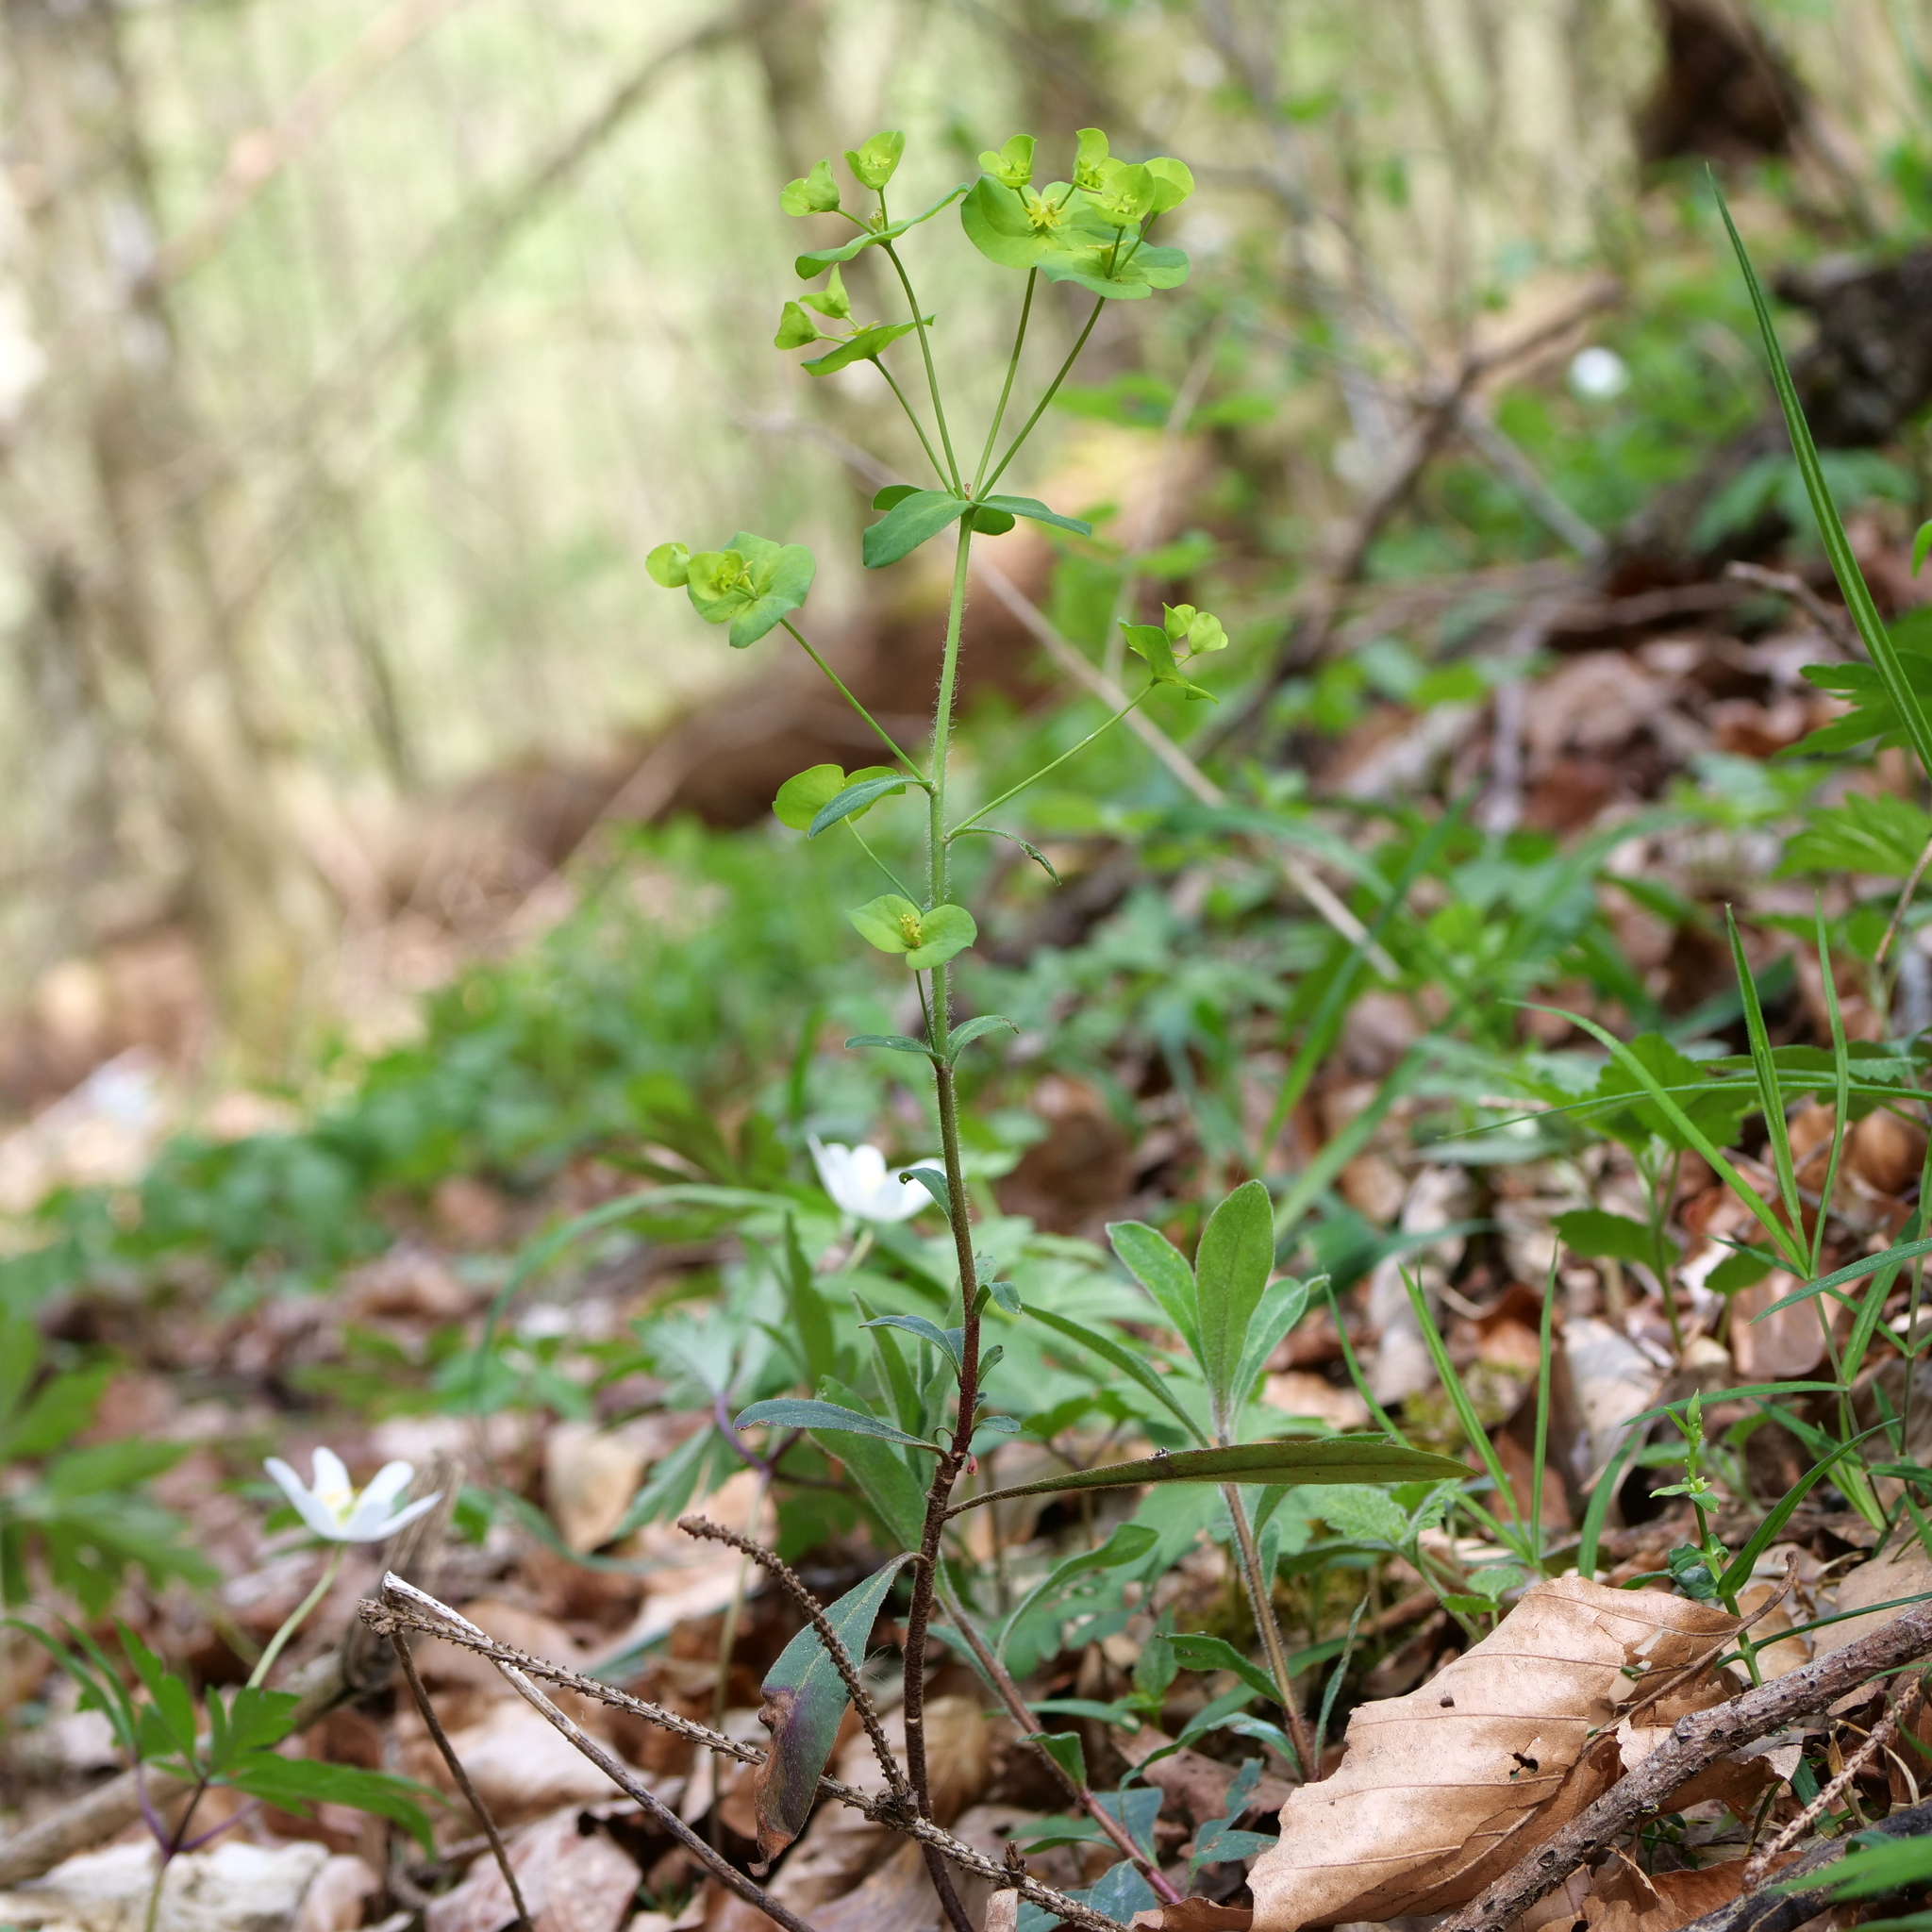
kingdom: Plantae
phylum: Tracheophyta
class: Magnoliopsida
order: Malpighiales
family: Euphorbiaceae
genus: Euphorbia
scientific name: Euphorbia amygdaloides
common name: Wood spurge
